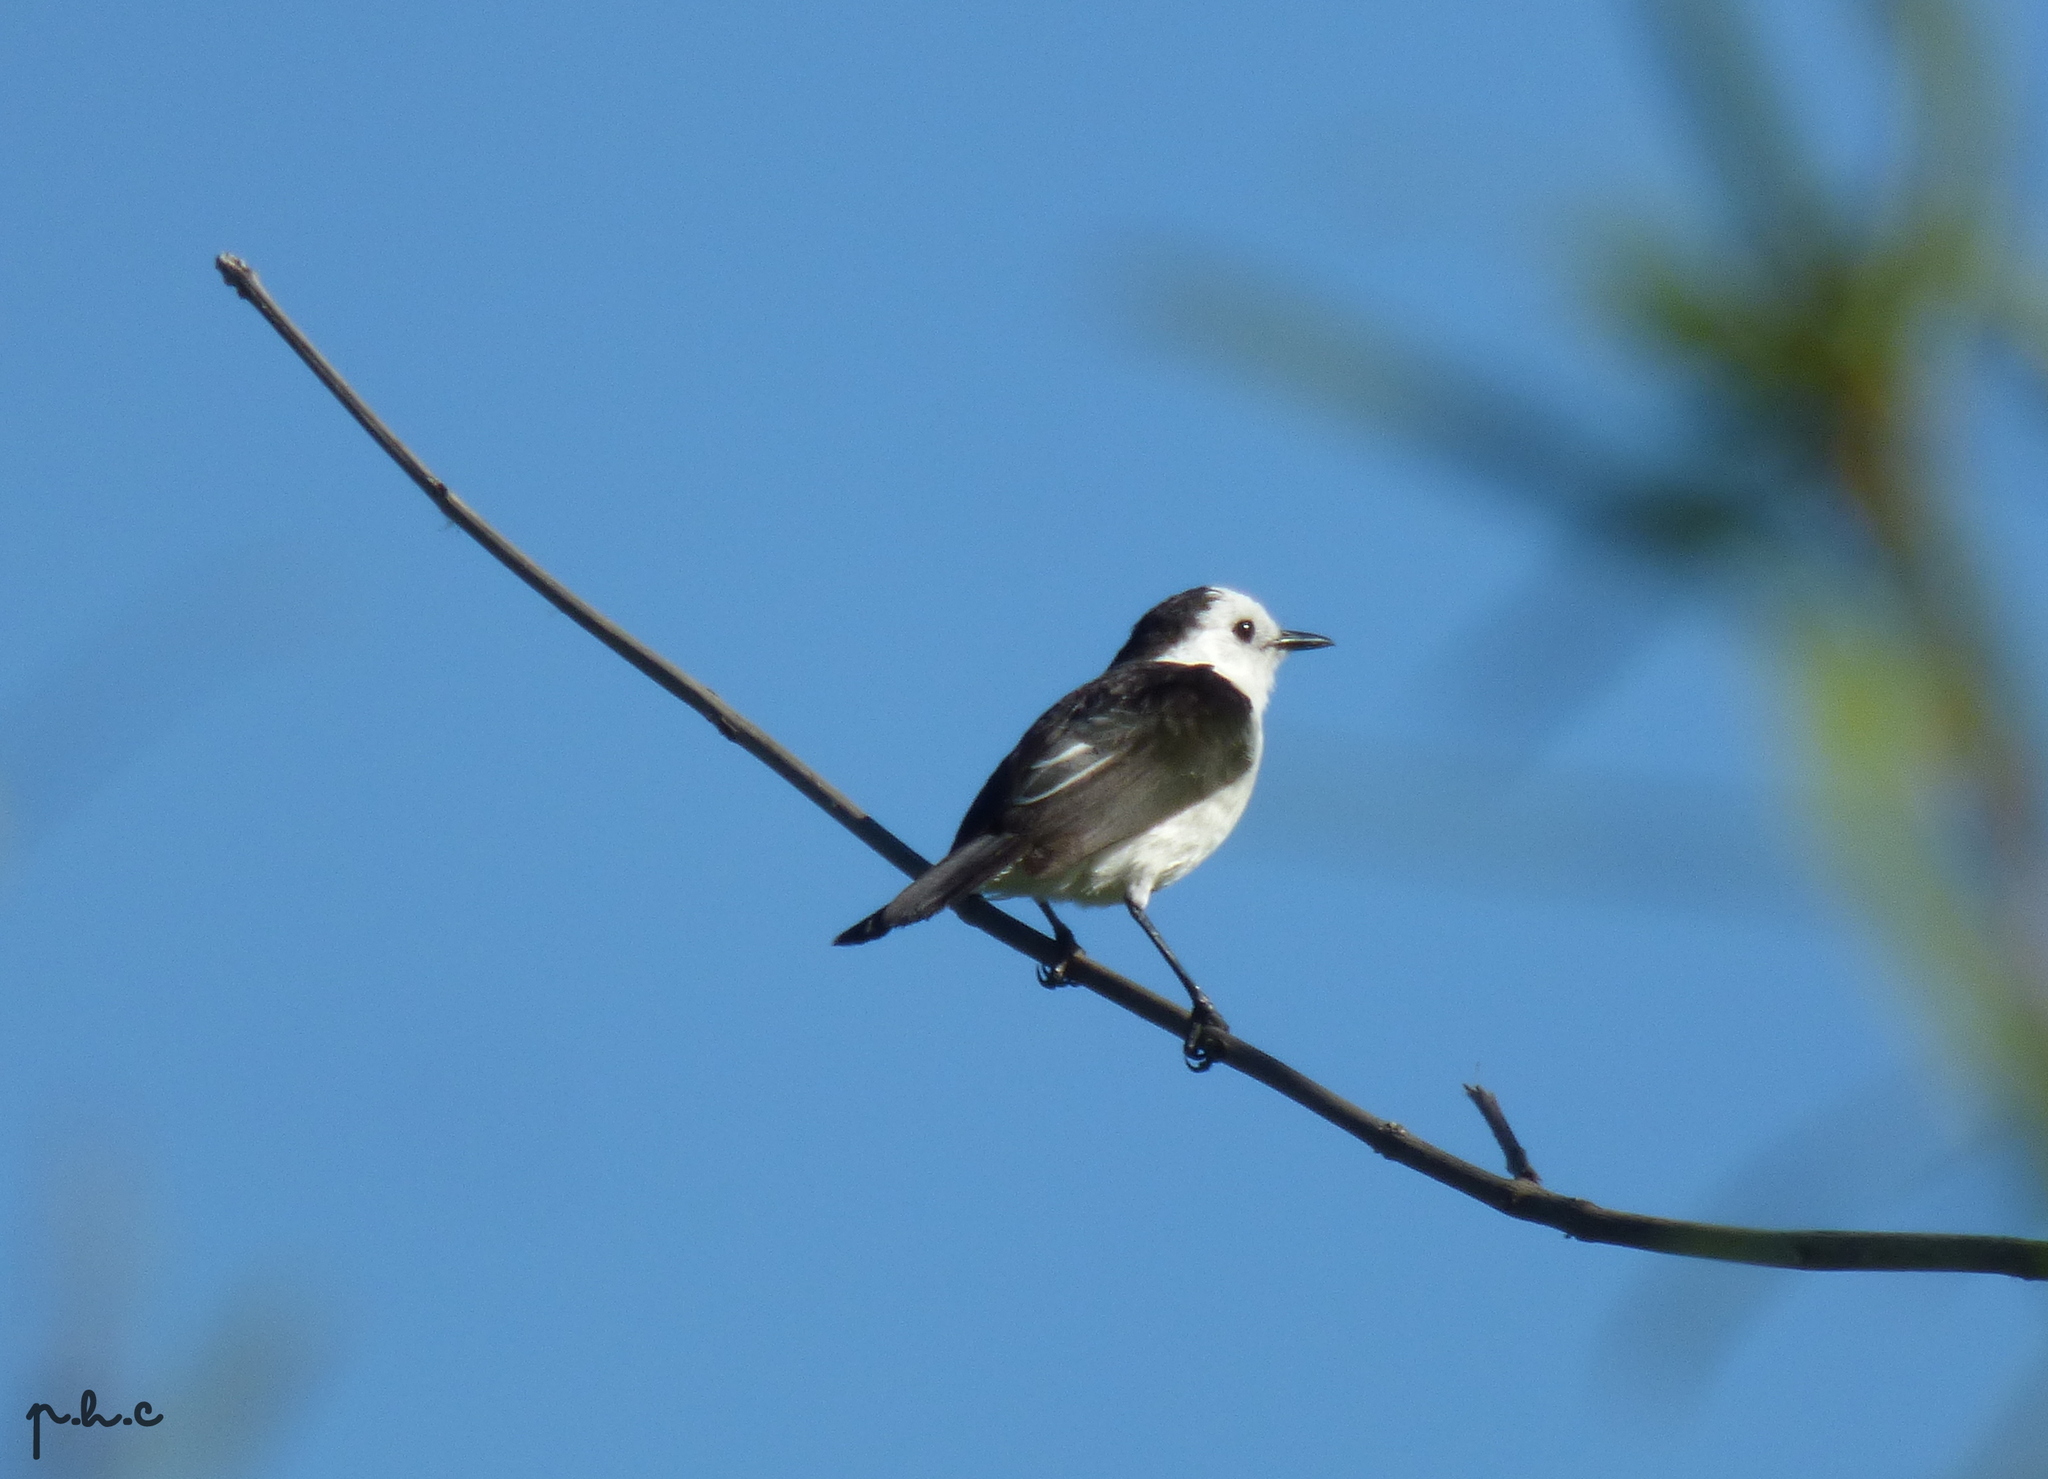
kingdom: Animalia
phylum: Chordata
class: Aves
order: Passeriformes
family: Tyrannidae
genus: Fluvicola
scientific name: Fluvicola pica
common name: Pied water-tyrant
